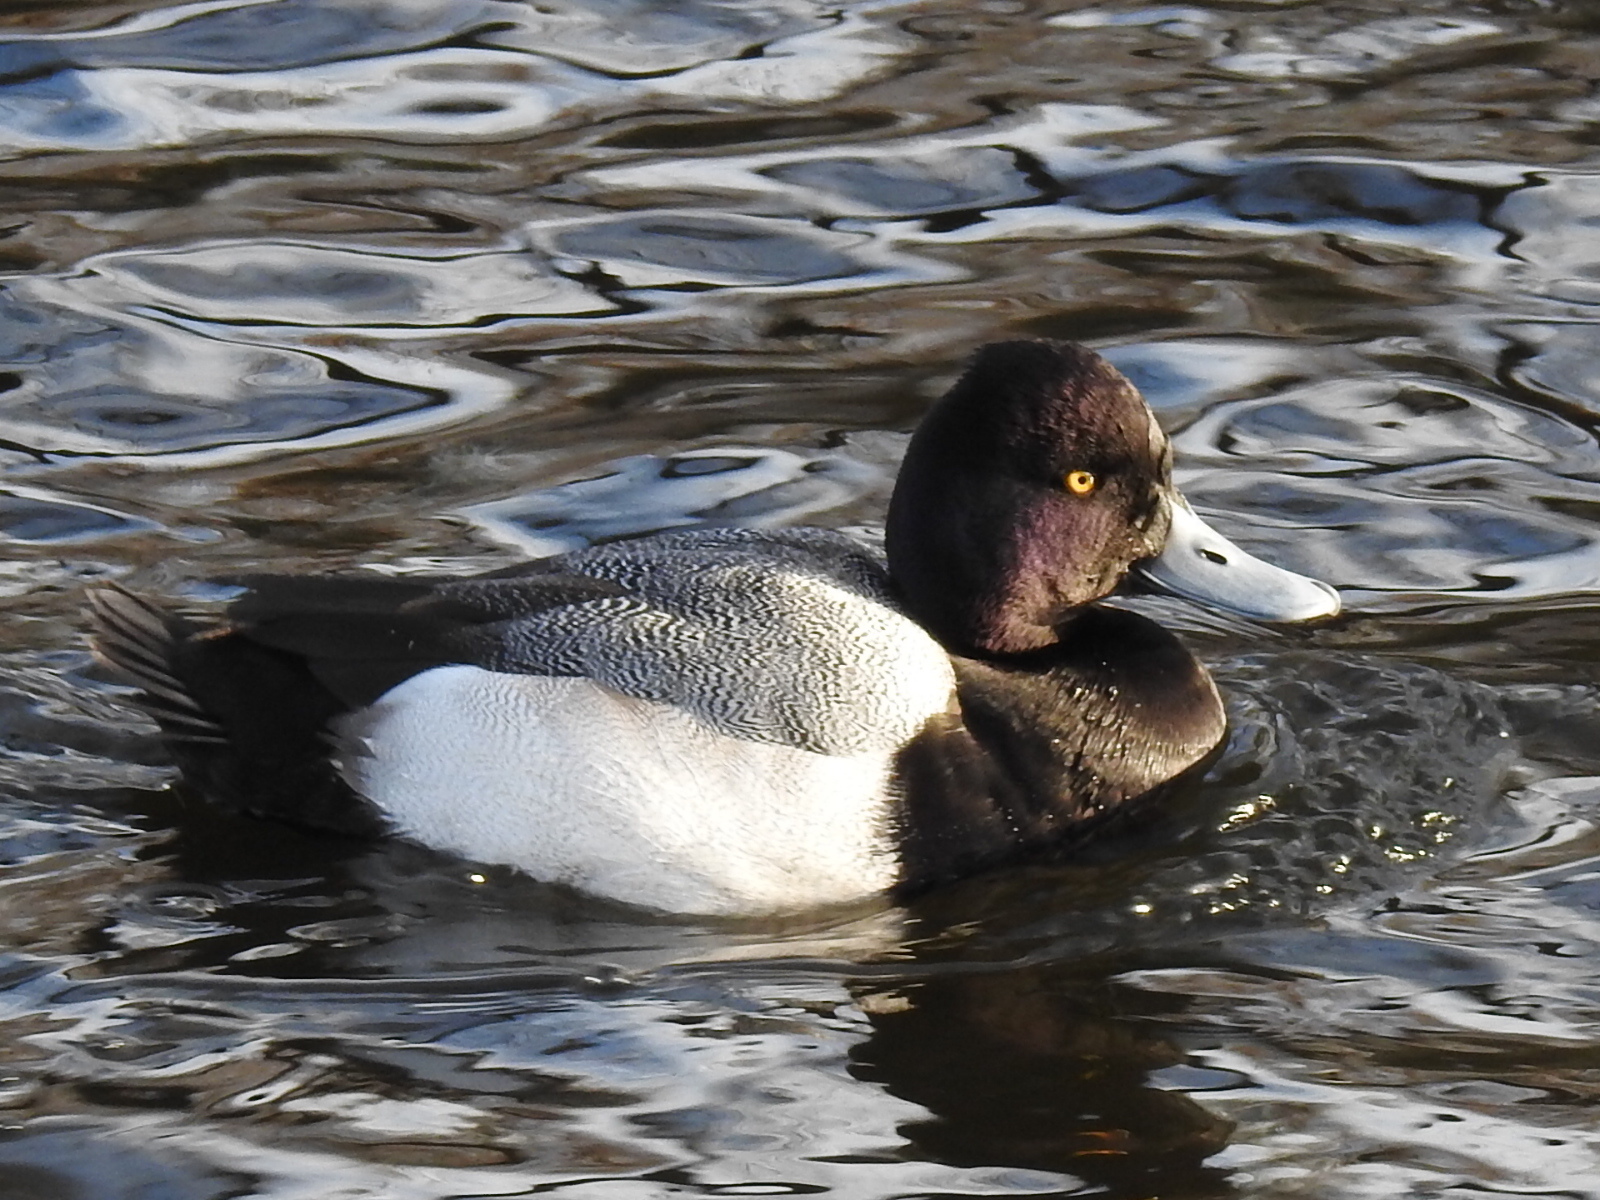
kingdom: Animalia
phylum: Chordata
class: Aves
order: Anseriformes
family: Anatidae
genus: Aythya
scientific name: Aythya affinis
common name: Lesser scaup
